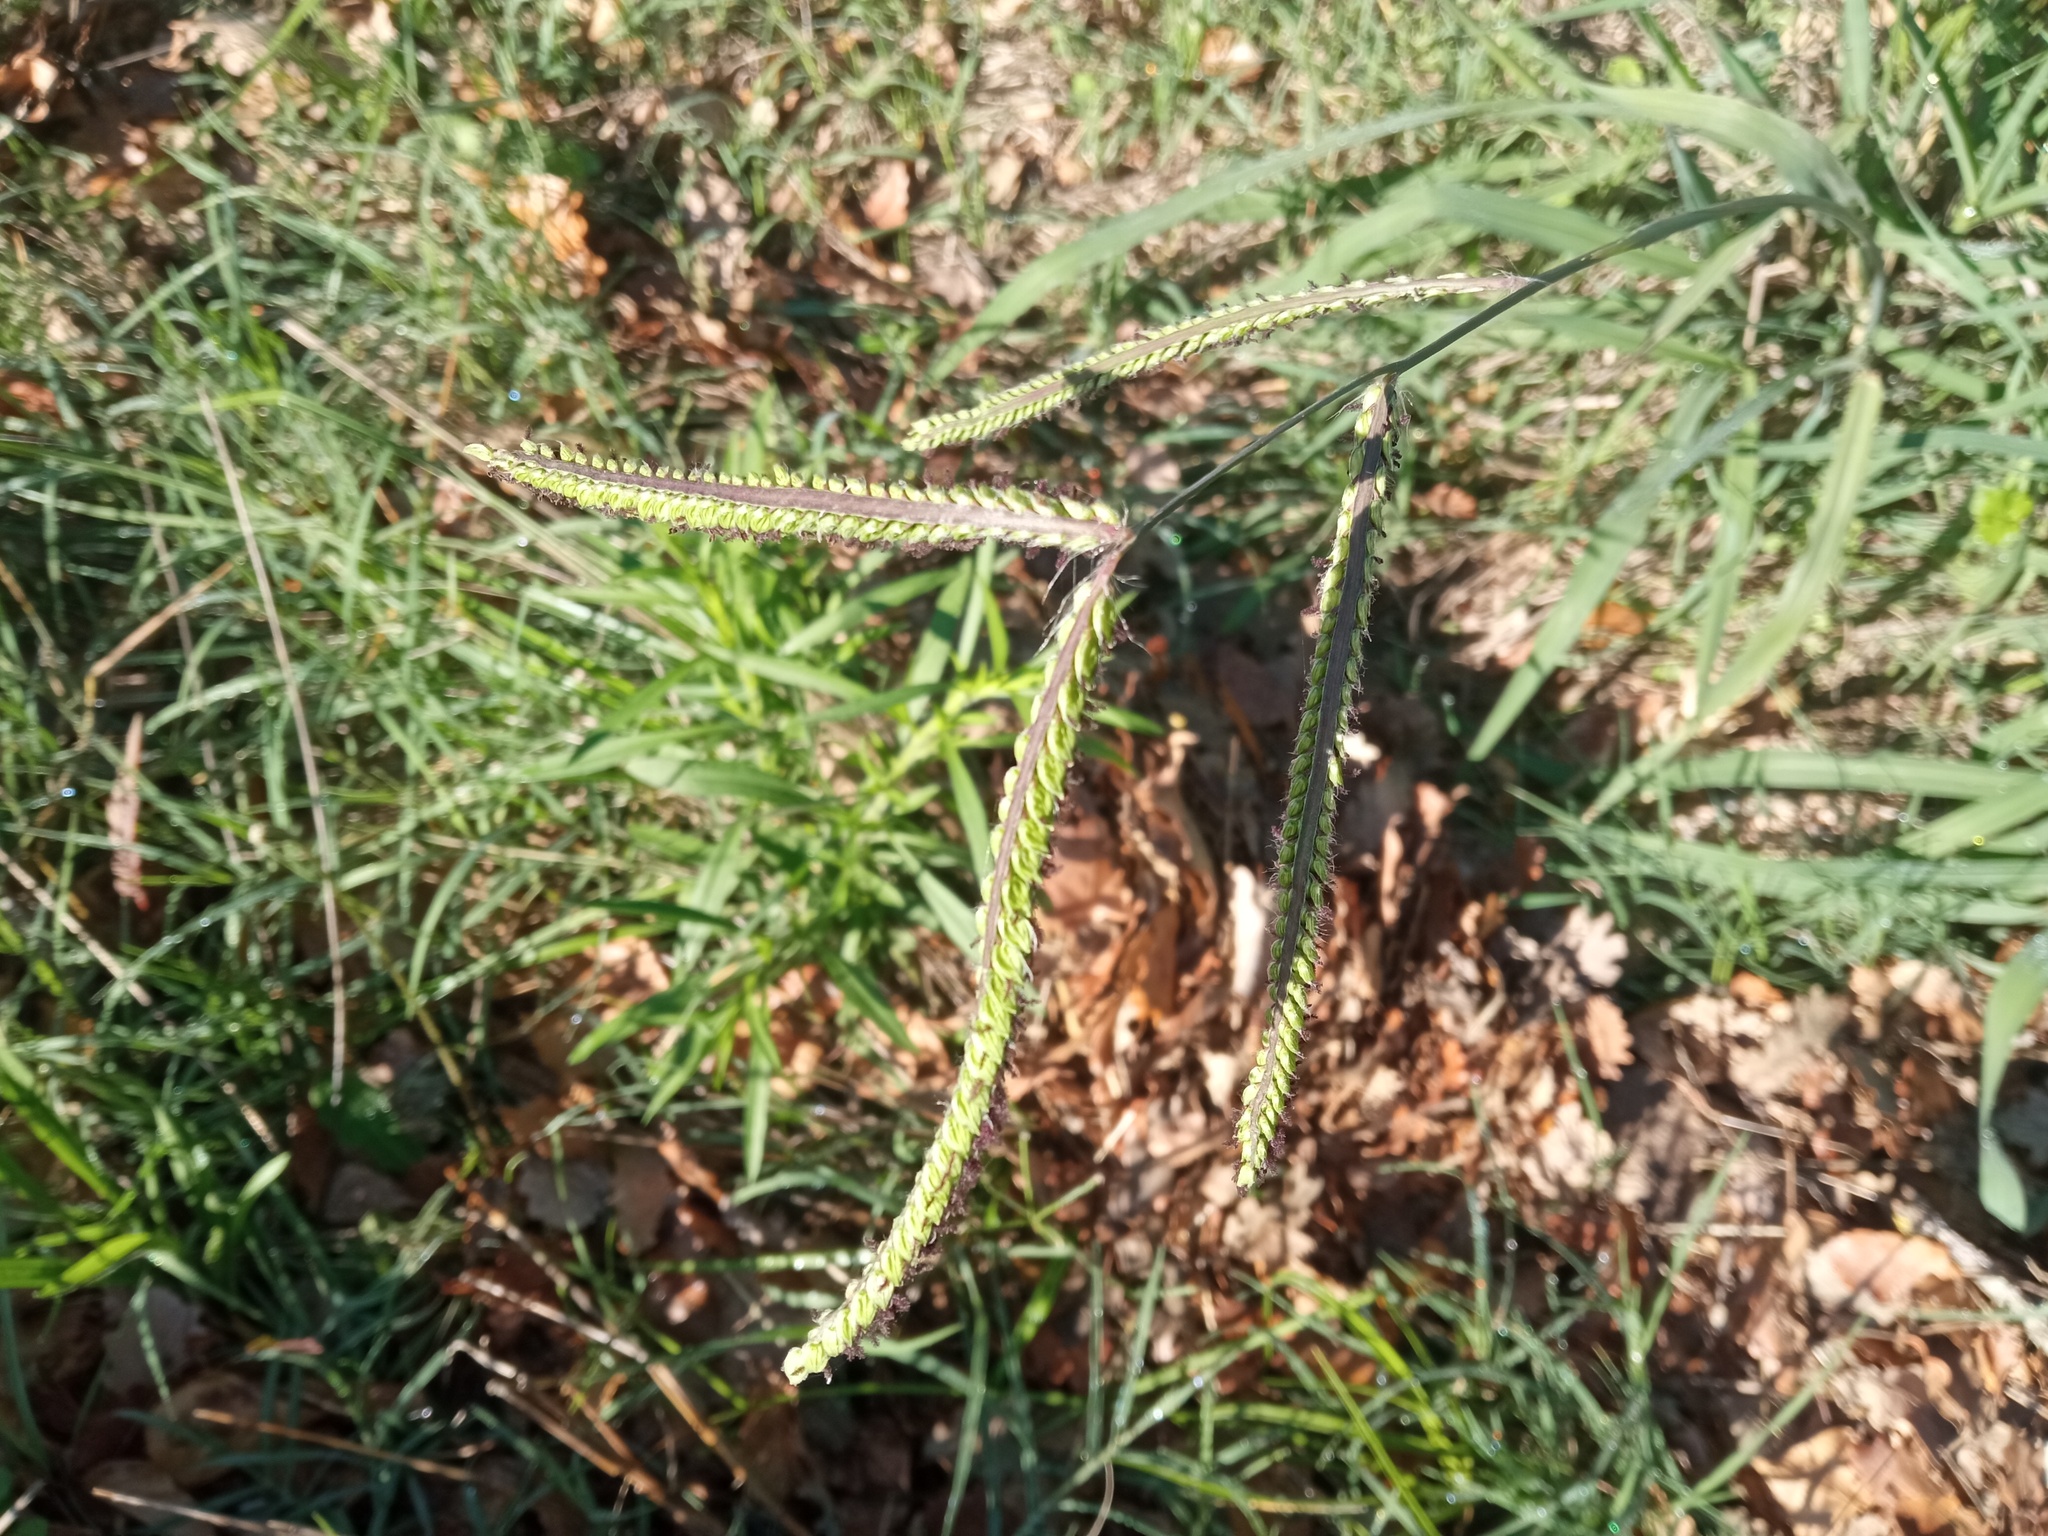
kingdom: Plantae
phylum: Tracheophyta
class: Liliopsida
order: Poales
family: Poaceae
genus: Paspalum
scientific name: Paspalum dilatatum
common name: Dallisgrass
